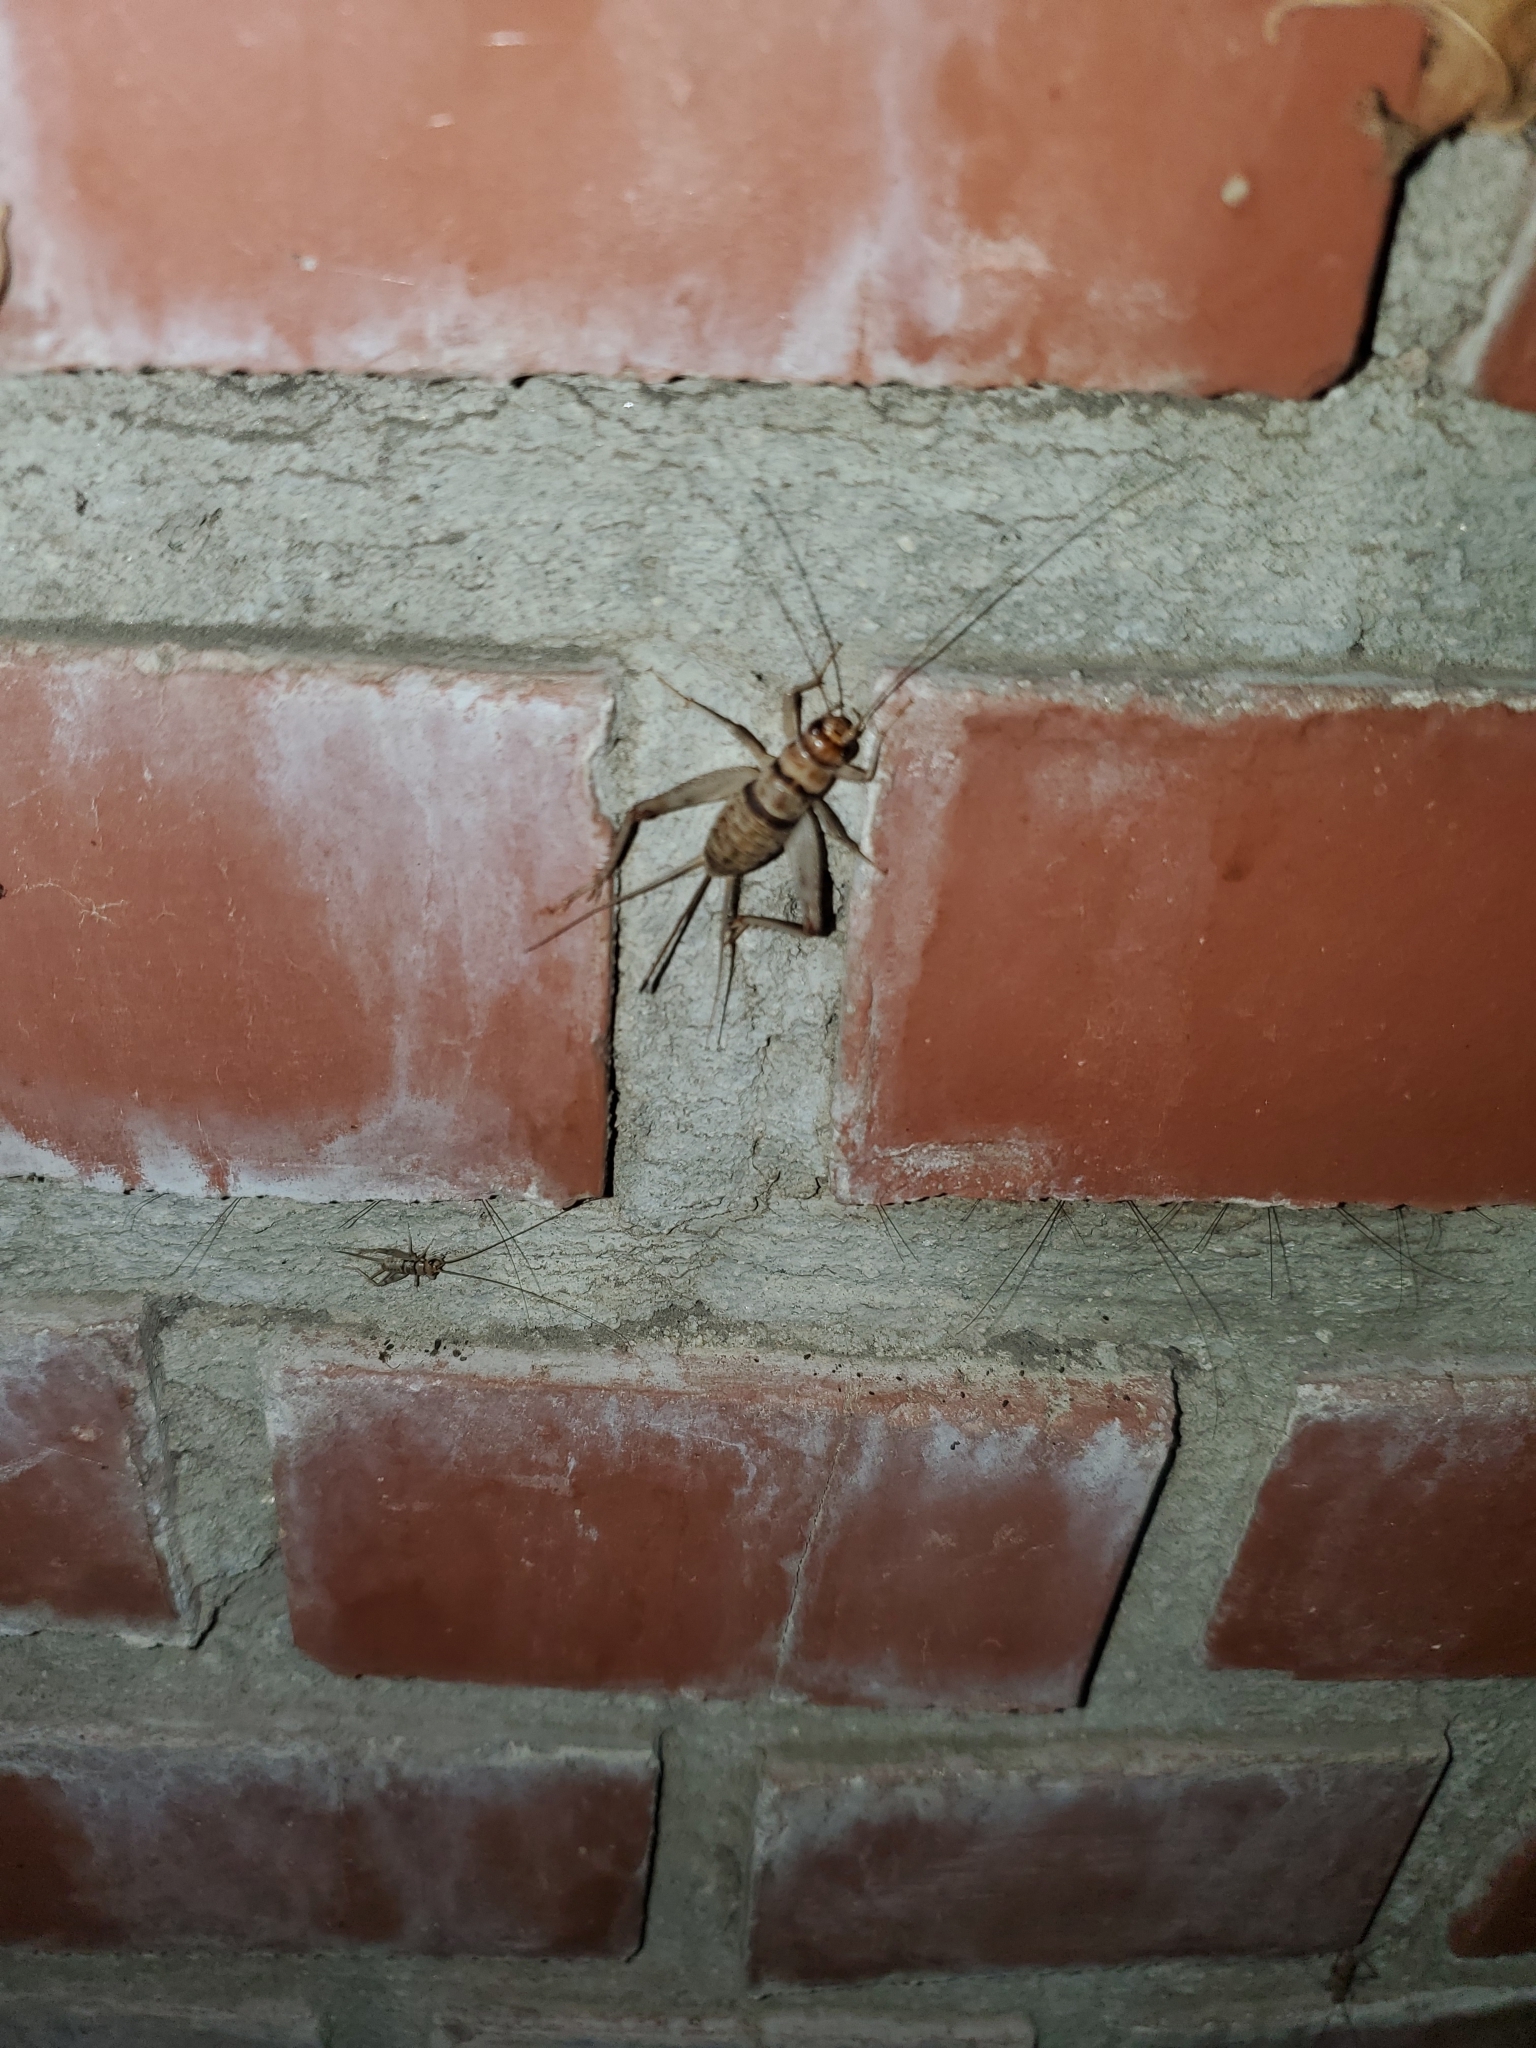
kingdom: Animalia
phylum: Arthropoda
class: Insecta
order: Orthoptera
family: Gryllidae
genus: Gryllodes
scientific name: Gryllodes sigillatus
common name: Tropical house cricket
